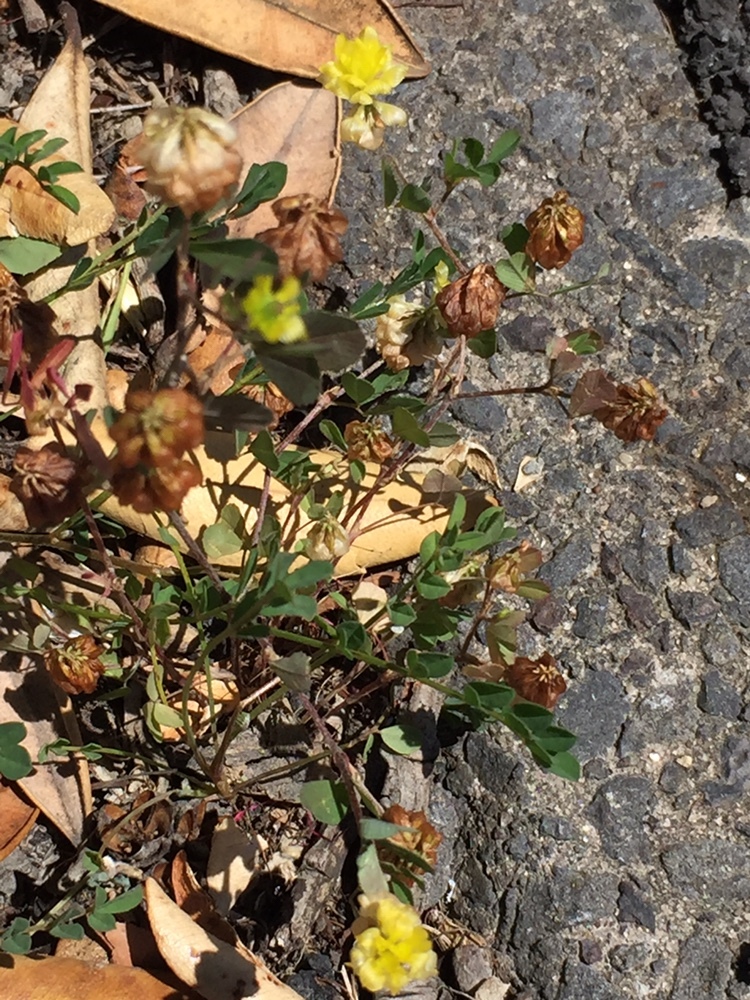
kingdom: Plantae
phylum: Tracheophyta
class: Magnoliopsida
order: Fabales
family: Fabaceae
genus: Trifolium
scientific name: Trifolium campestre
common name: Field clover
